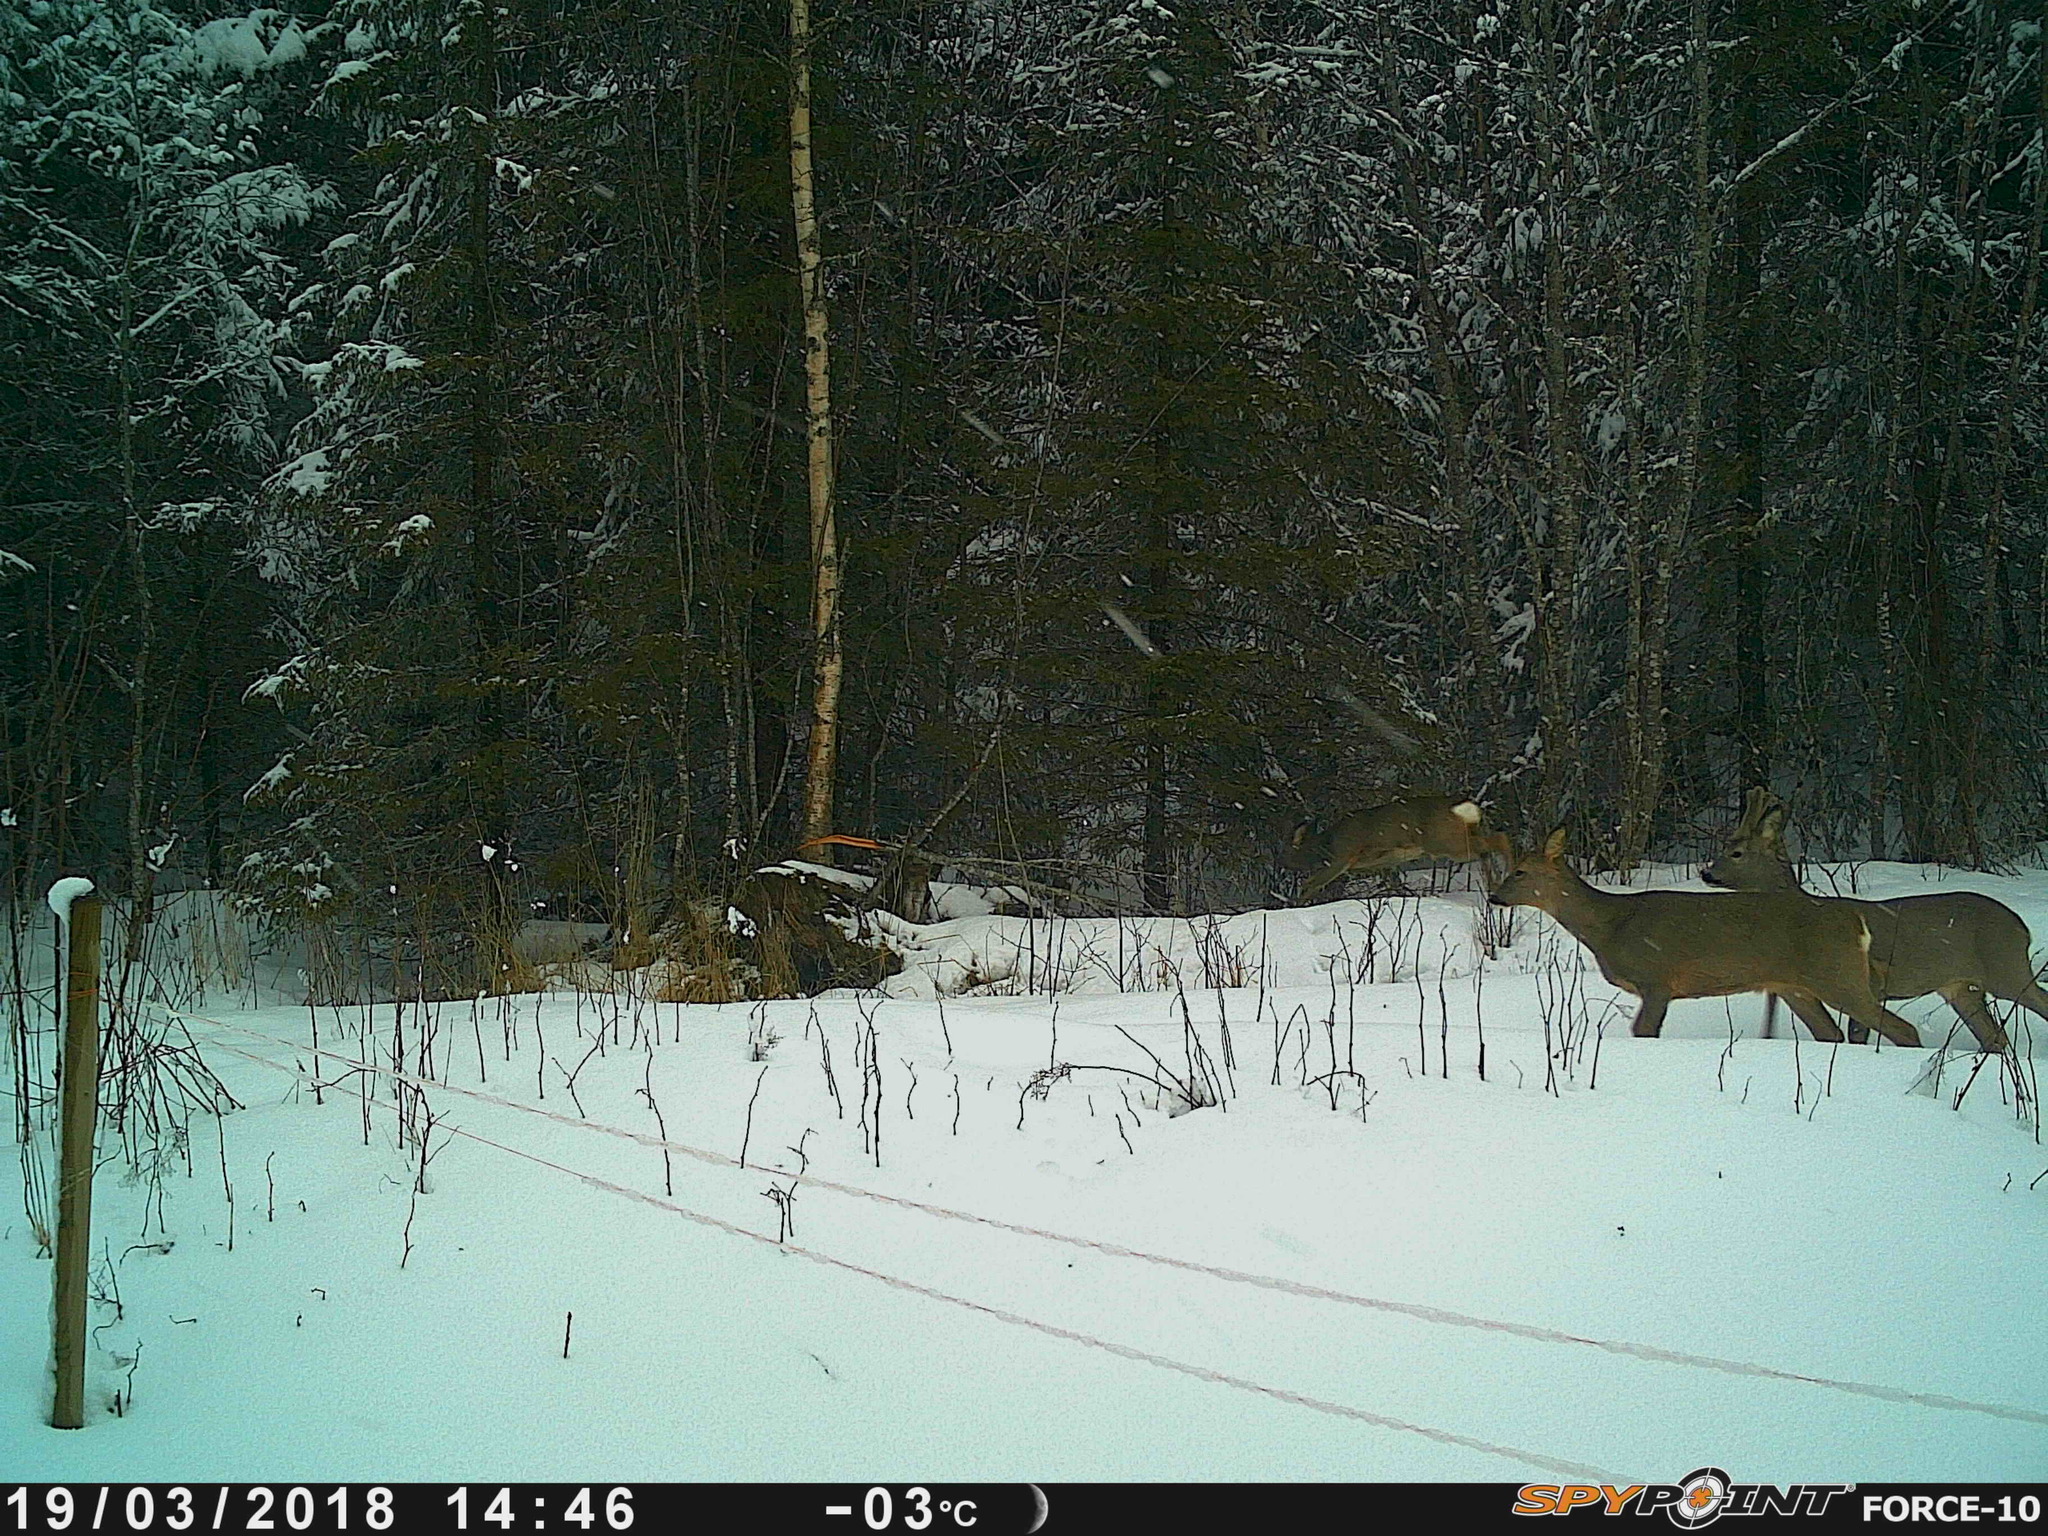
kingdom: Animalia
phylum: Chordata
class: Mammalia
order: Artiodactyla
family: Cervidae
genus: Capreolus
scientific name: Capreolus capreolus
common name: Western roe deer
